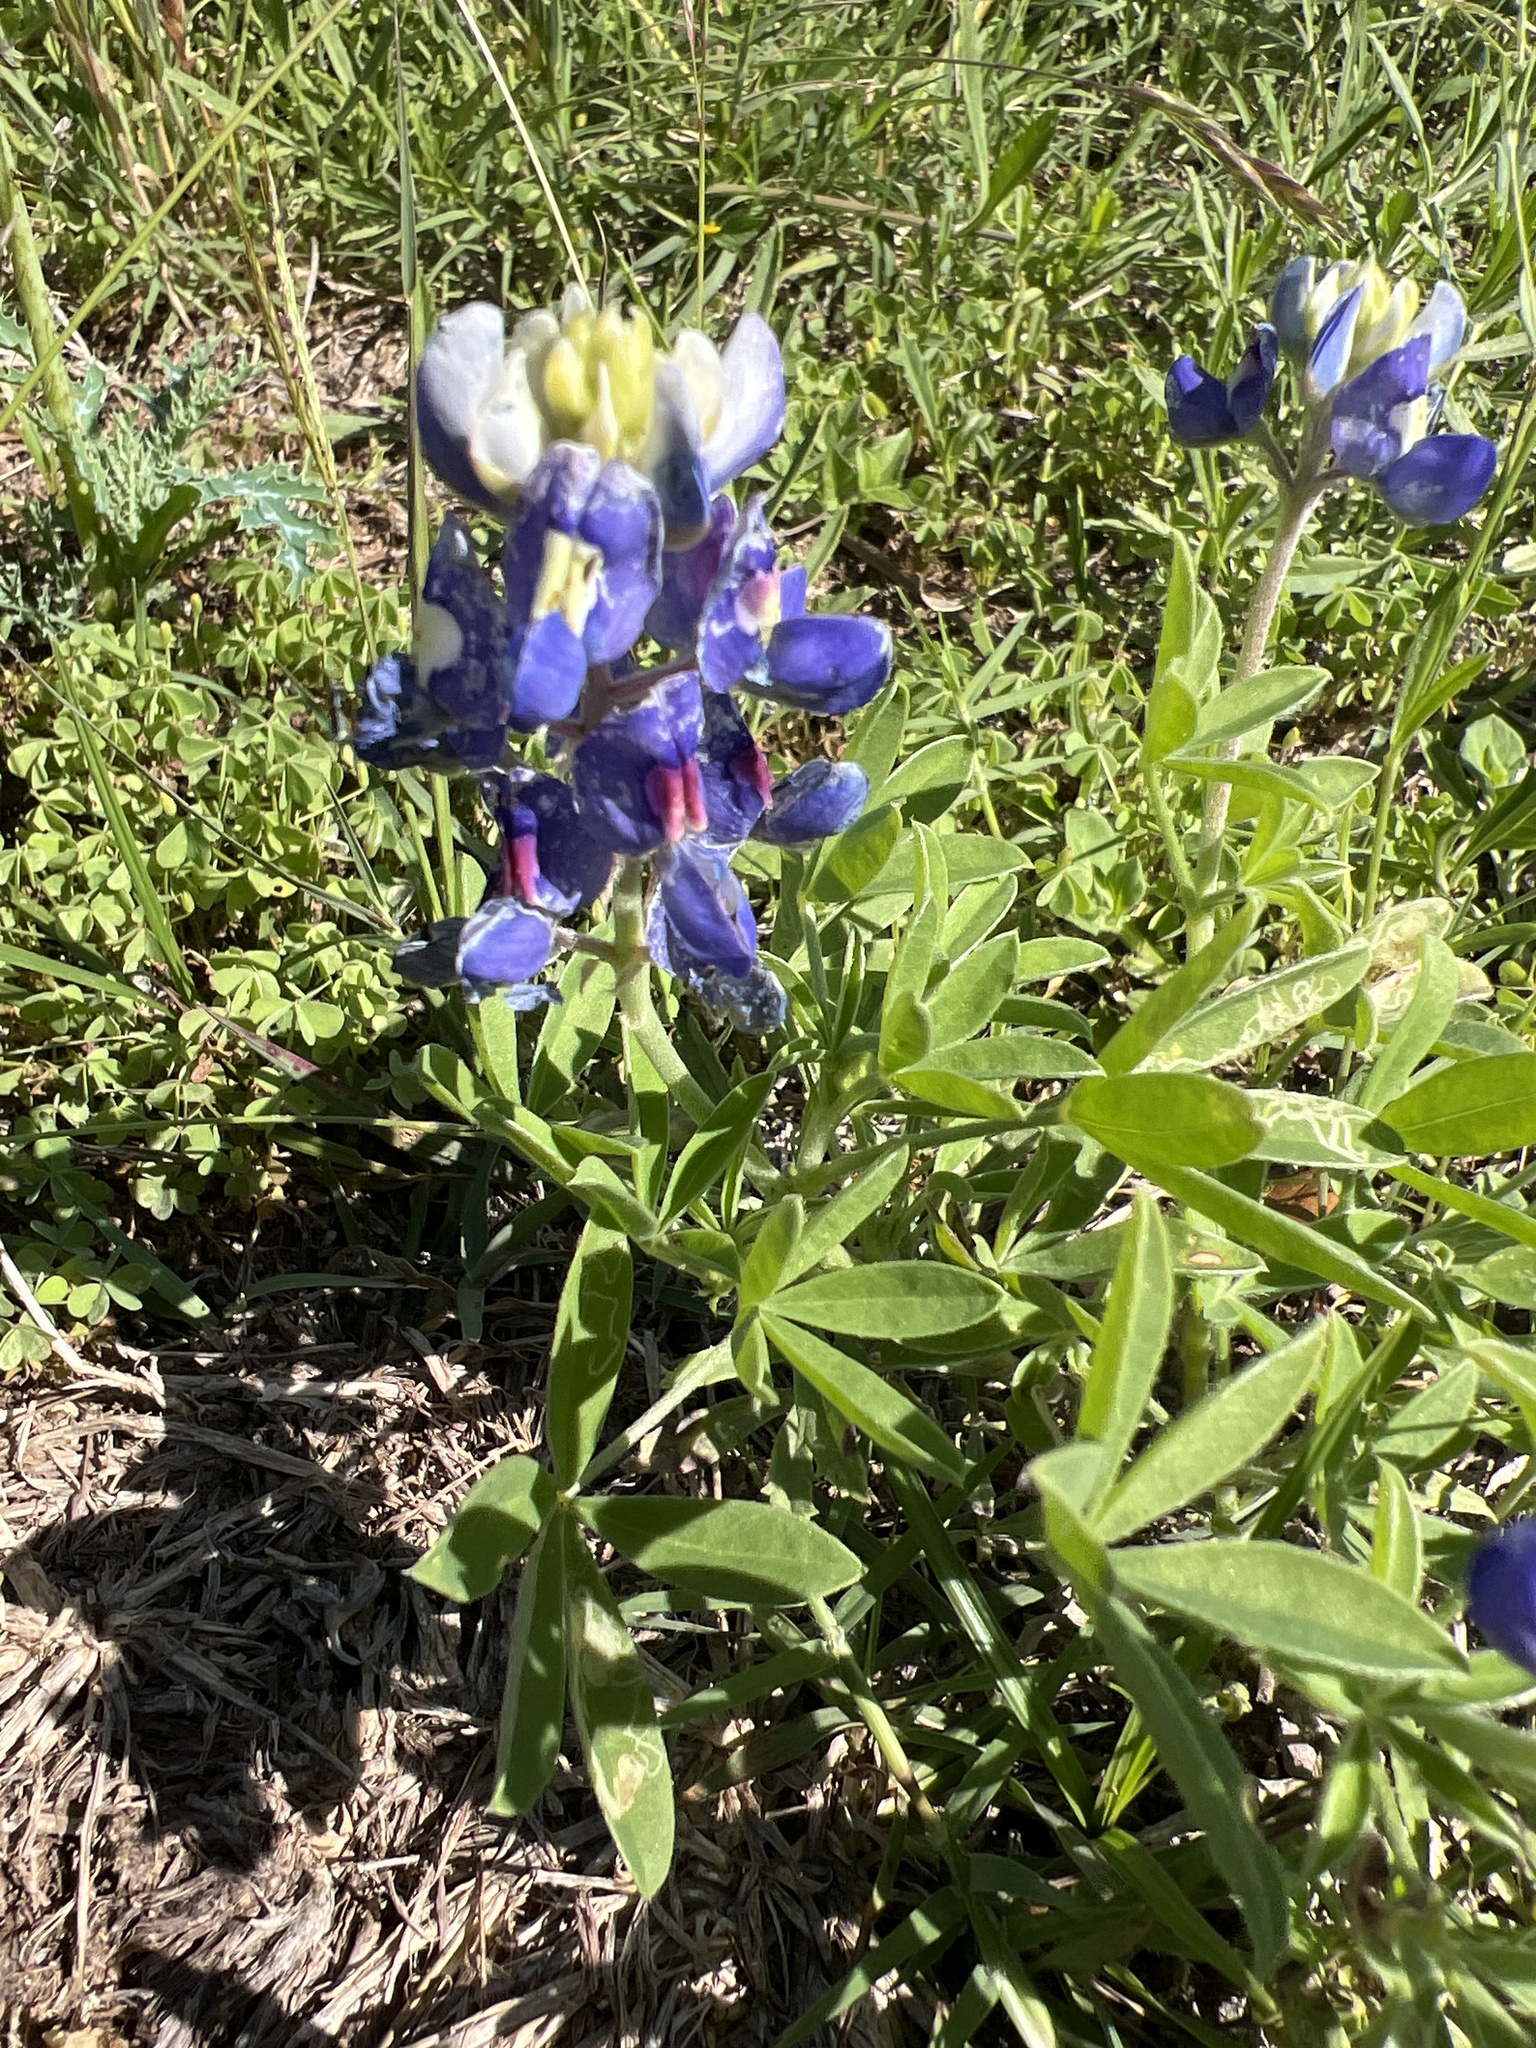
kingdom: Plantae
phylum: Tracheophyta
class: Magnoliopsida
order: Fabales
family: Fabaceae
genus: Lupinus
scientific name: Lupinus texensis
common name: Texas bluebonnet
